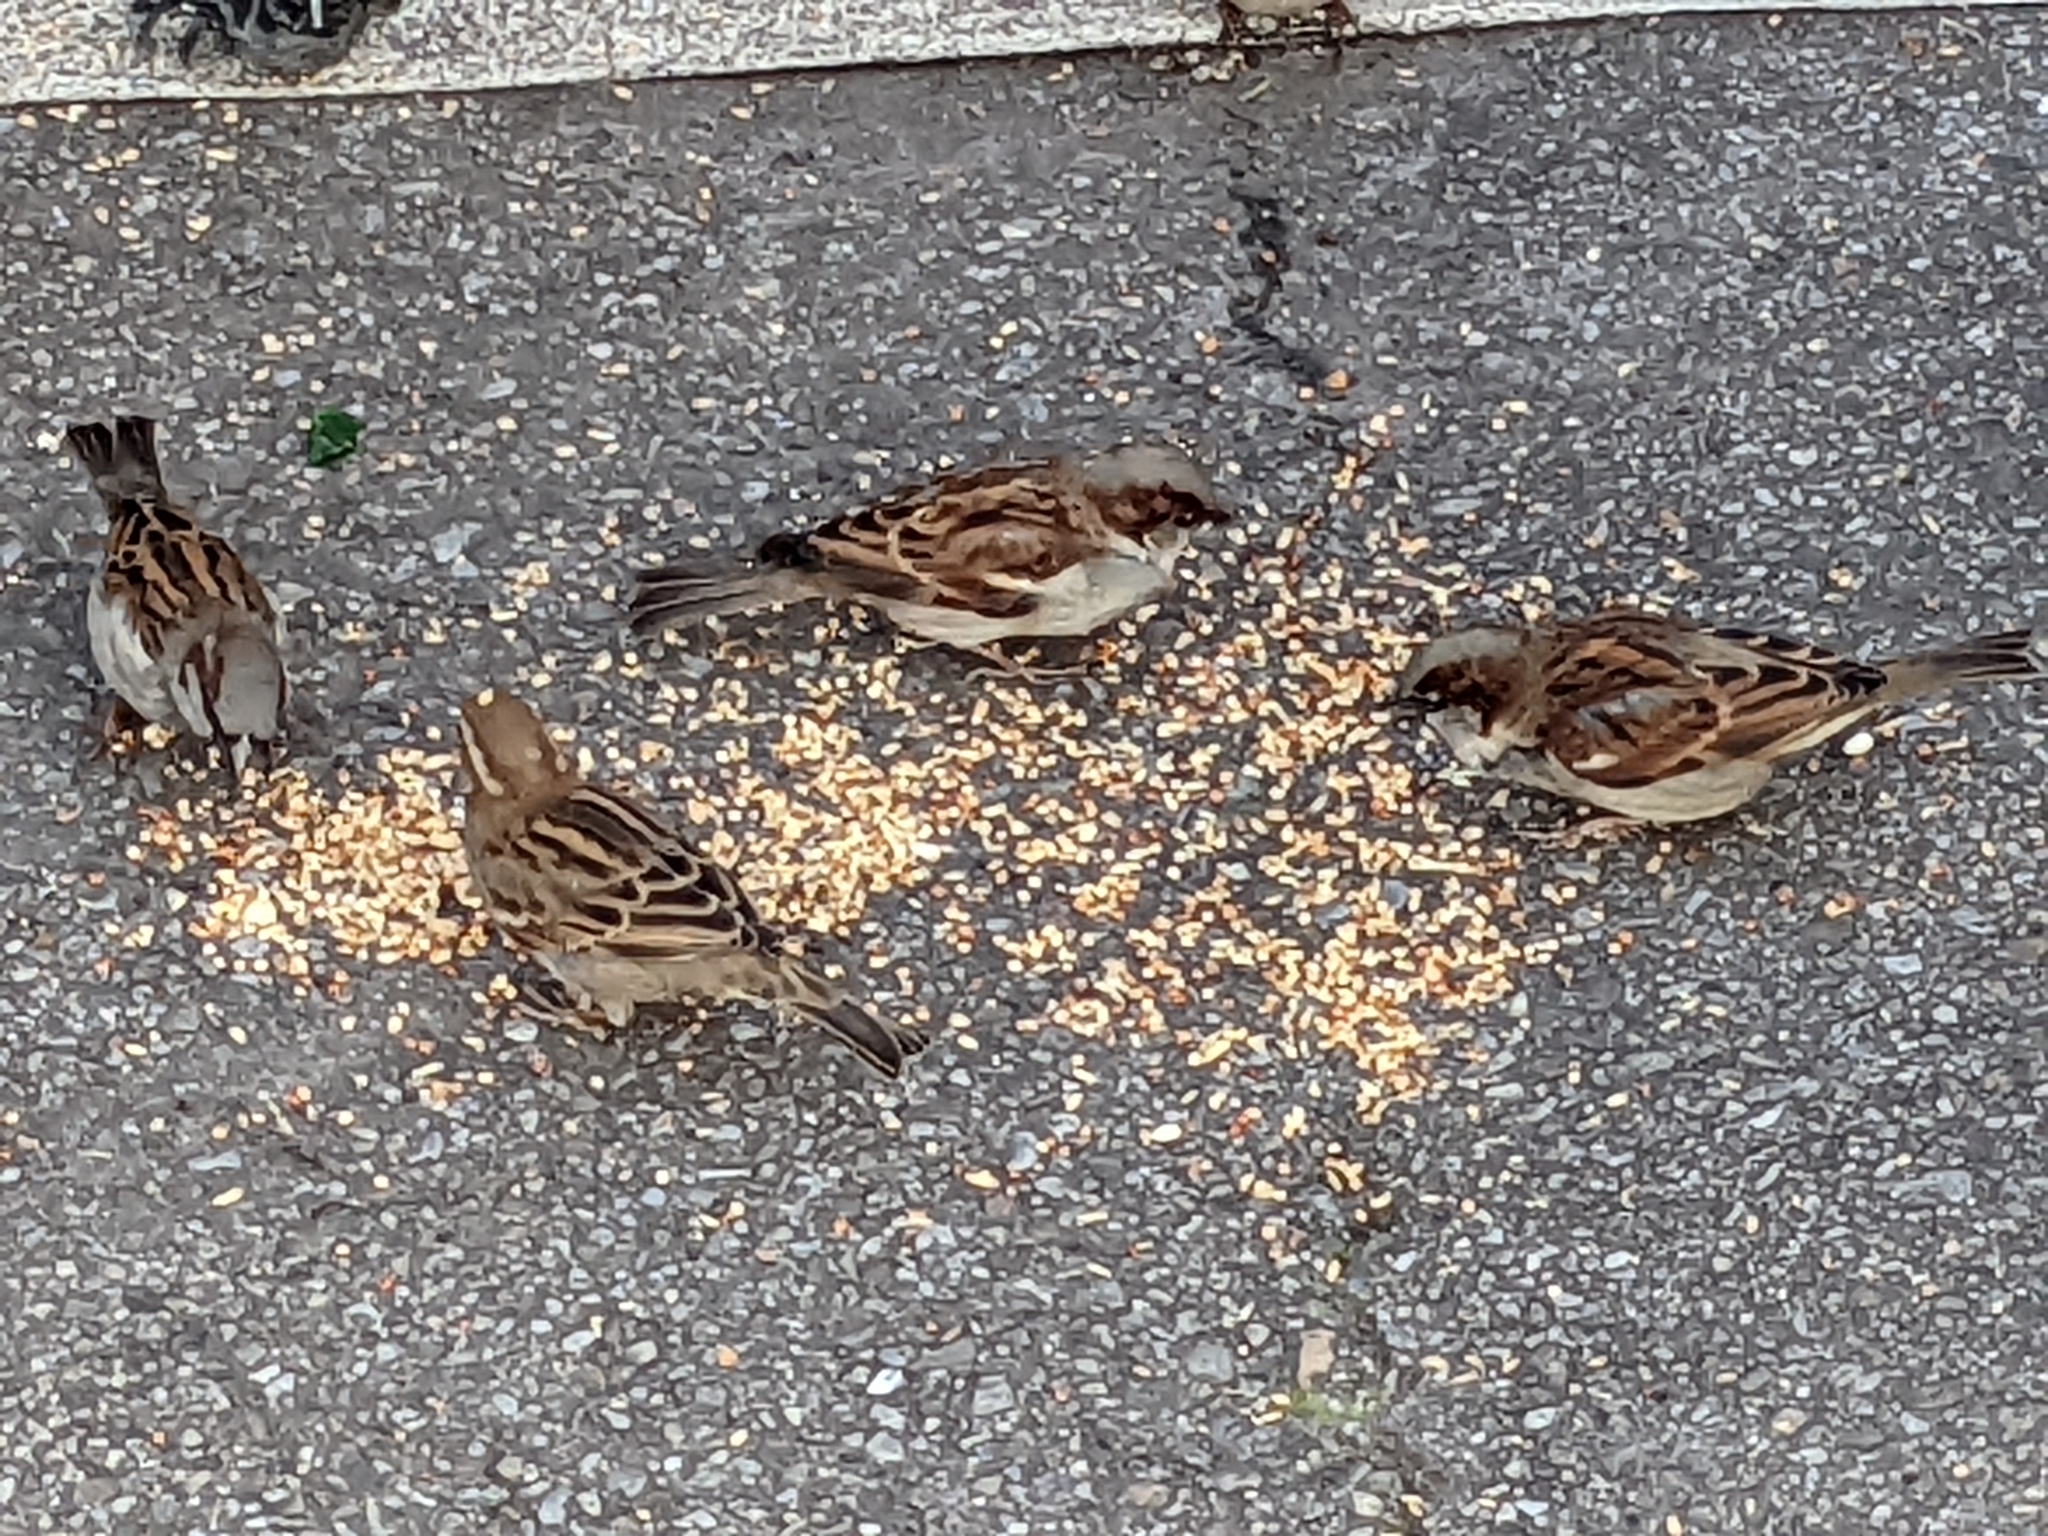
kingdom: Animalia
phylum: Chordata
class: Aves
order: Passeriformes
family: Passeridae
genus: Passer
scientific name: Passer domesticus
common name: House sparrow
